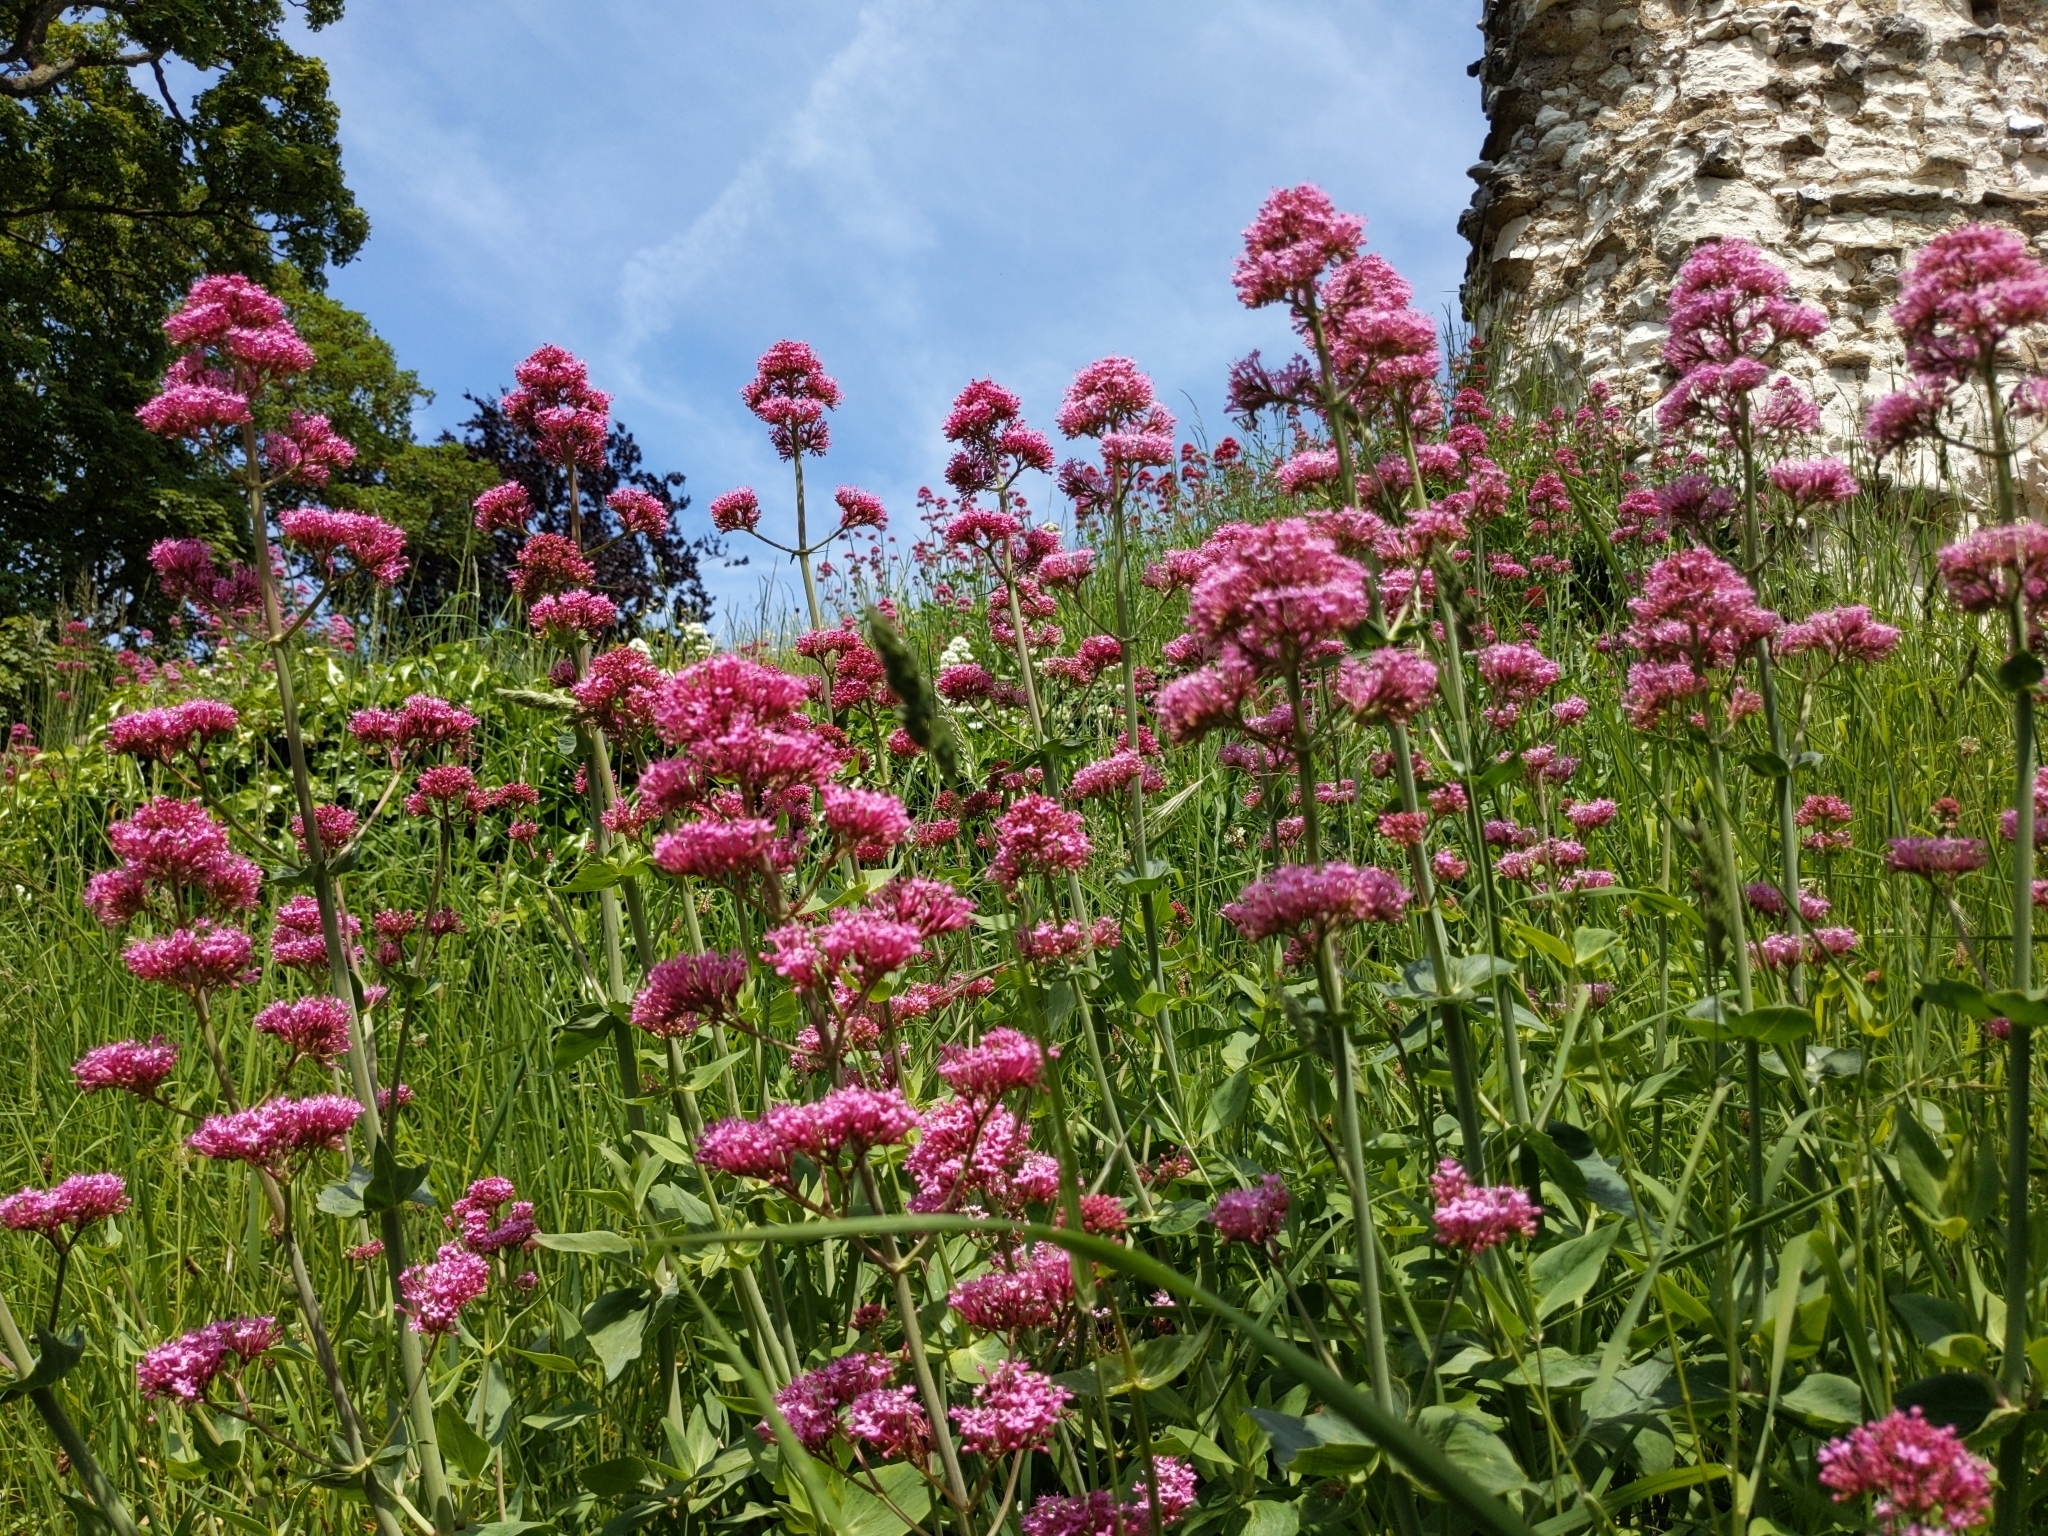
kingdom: Plantae
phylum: Tracheophyta
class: Magnoliopsida
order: Dipsacales
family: Caprifoliaceae
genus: Centranthus
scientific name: Centranthus ruber
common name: Red valerian
